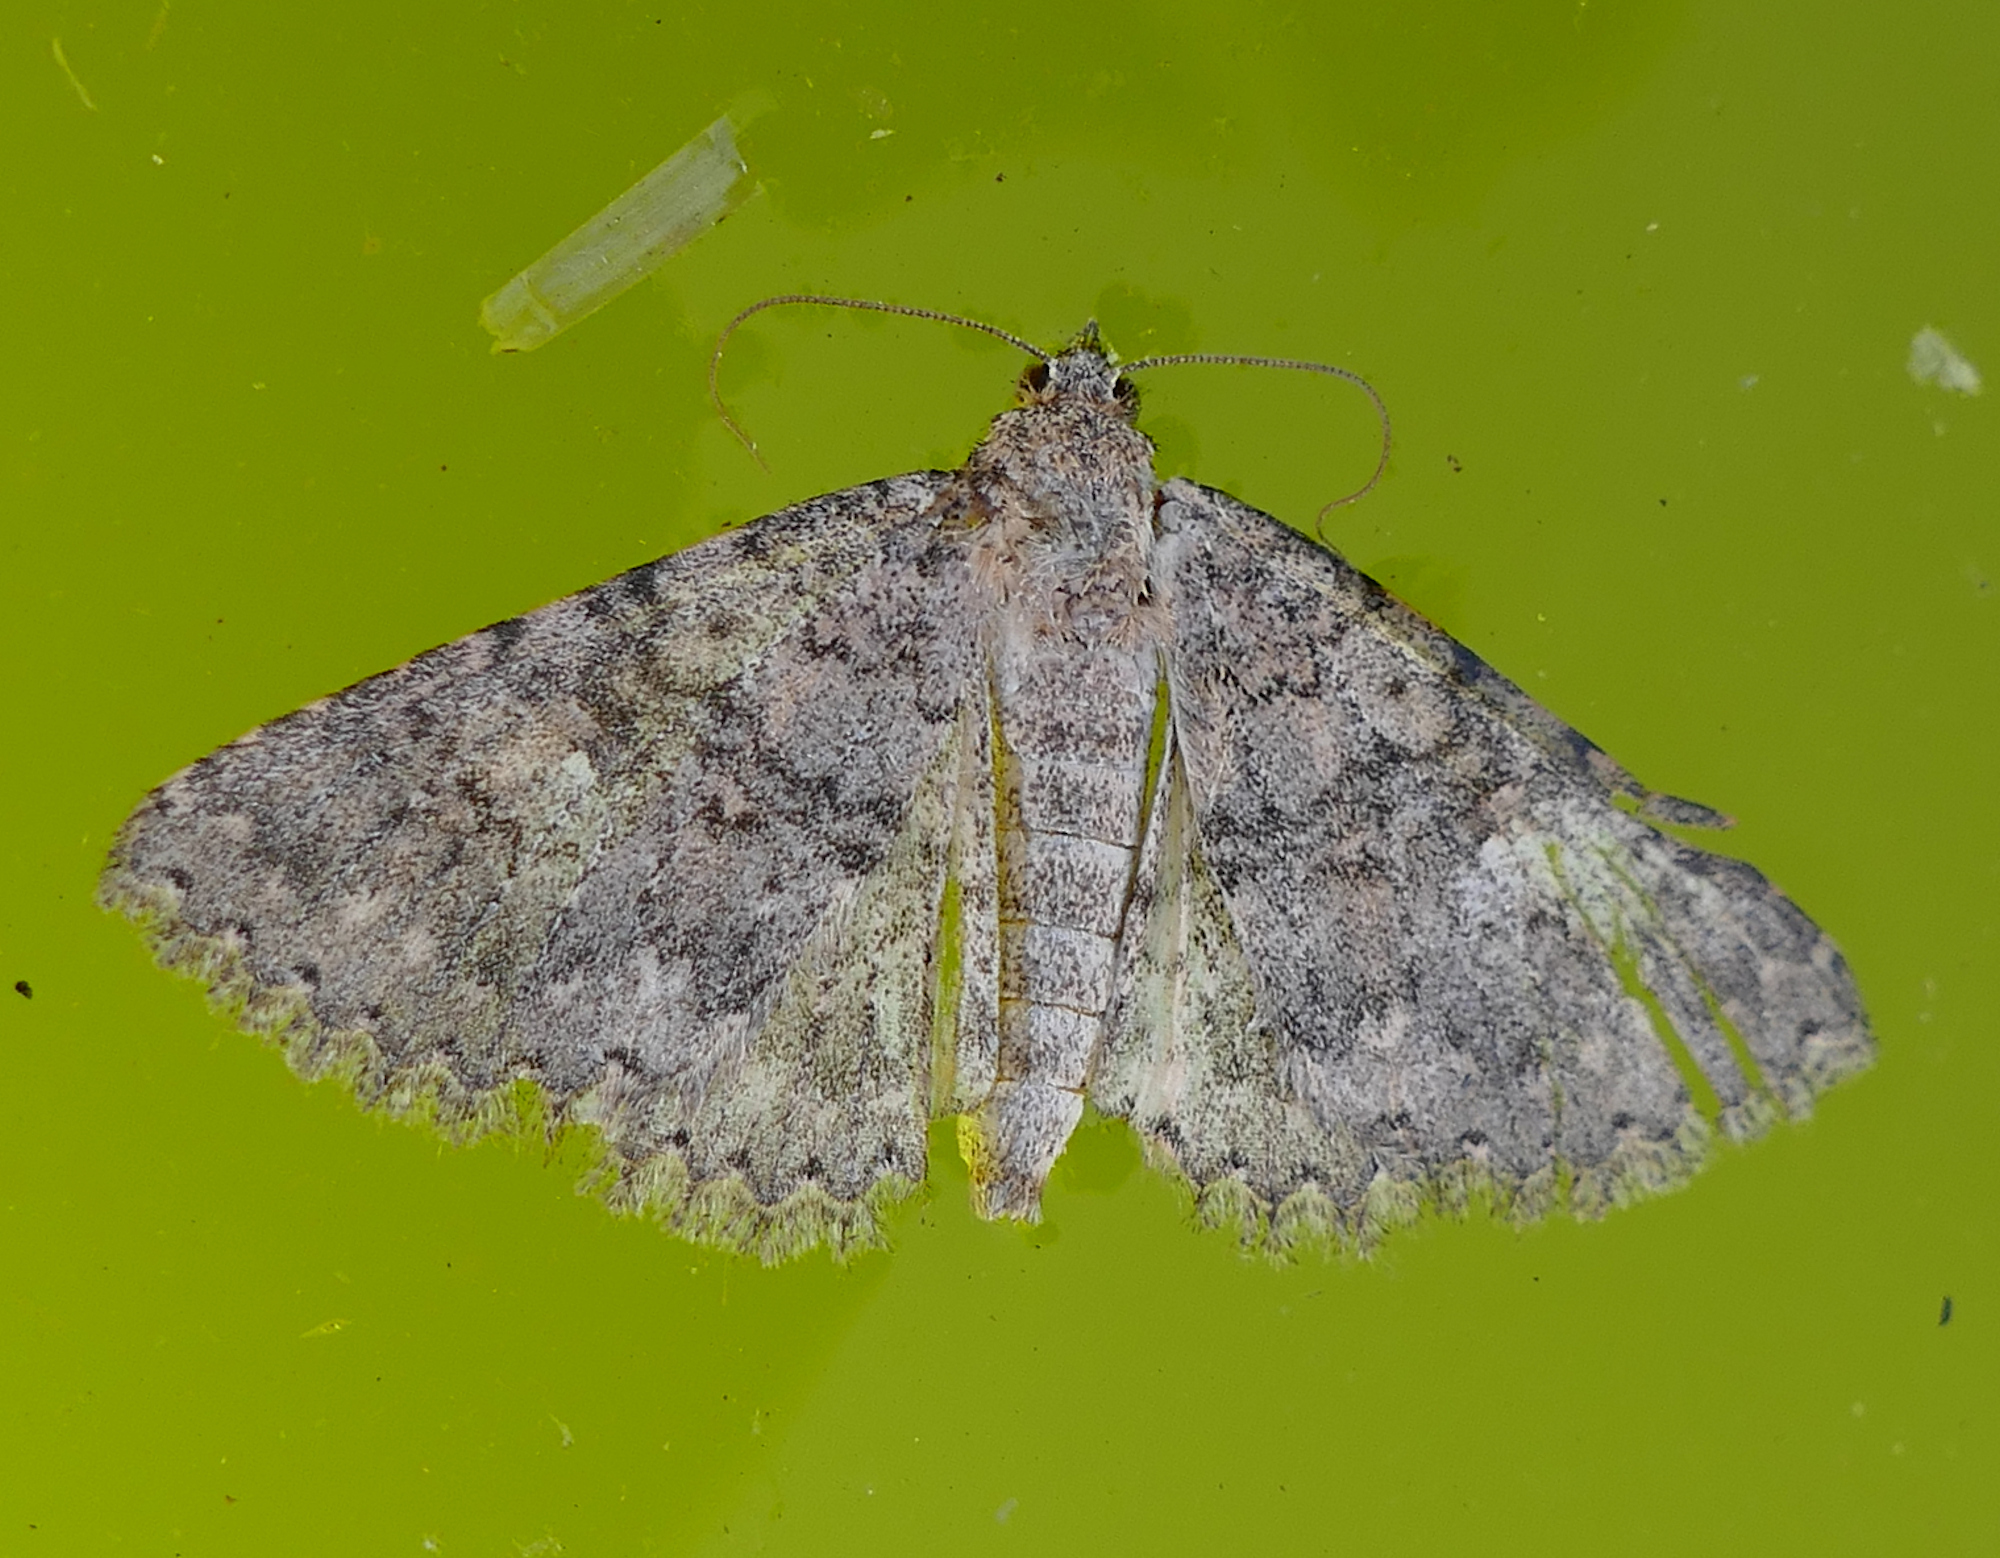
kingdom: Animalia
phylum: Arthropoda
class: Insecta
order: Lepidoptera
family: Erebidae
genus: Matigramma
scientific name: Matigramma
